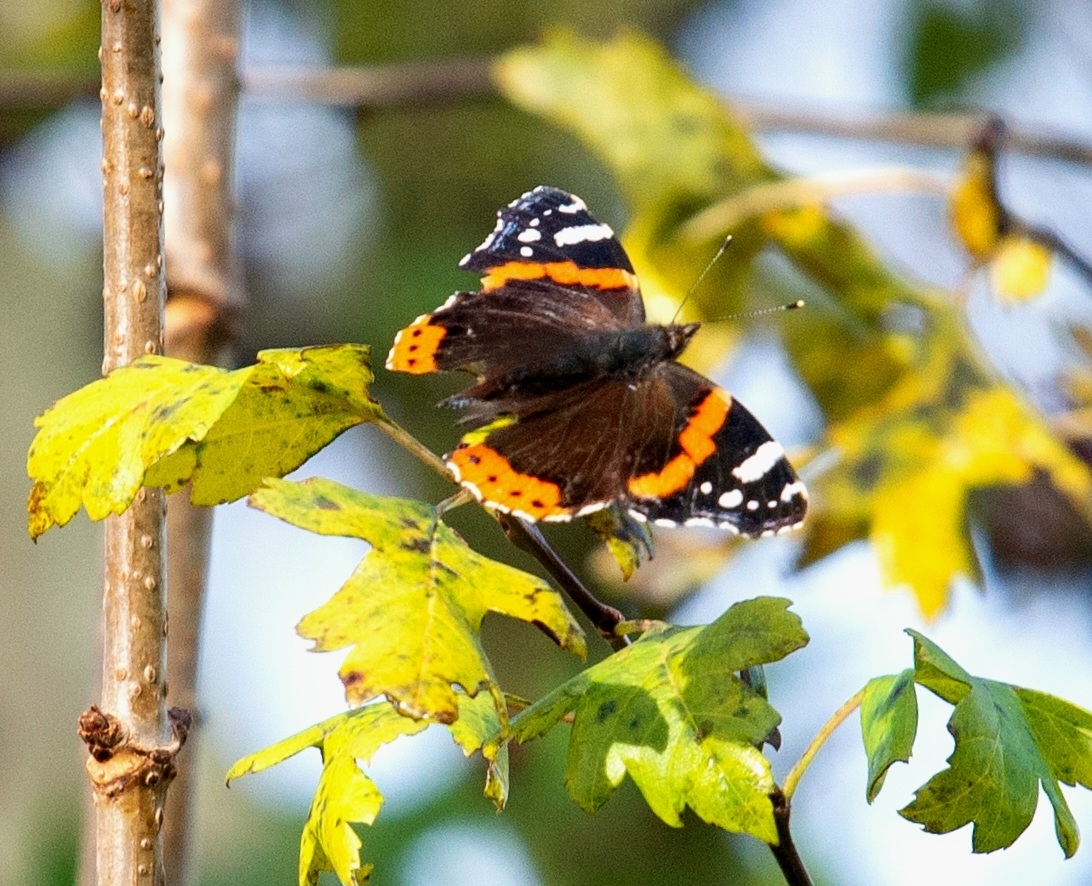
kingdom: Animalia
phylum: Arthropoda
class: Insecta
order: Lepidoptera
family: Nymphalidae
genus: Vanessa
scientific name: Vanessa atalanta
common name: Red admiral
